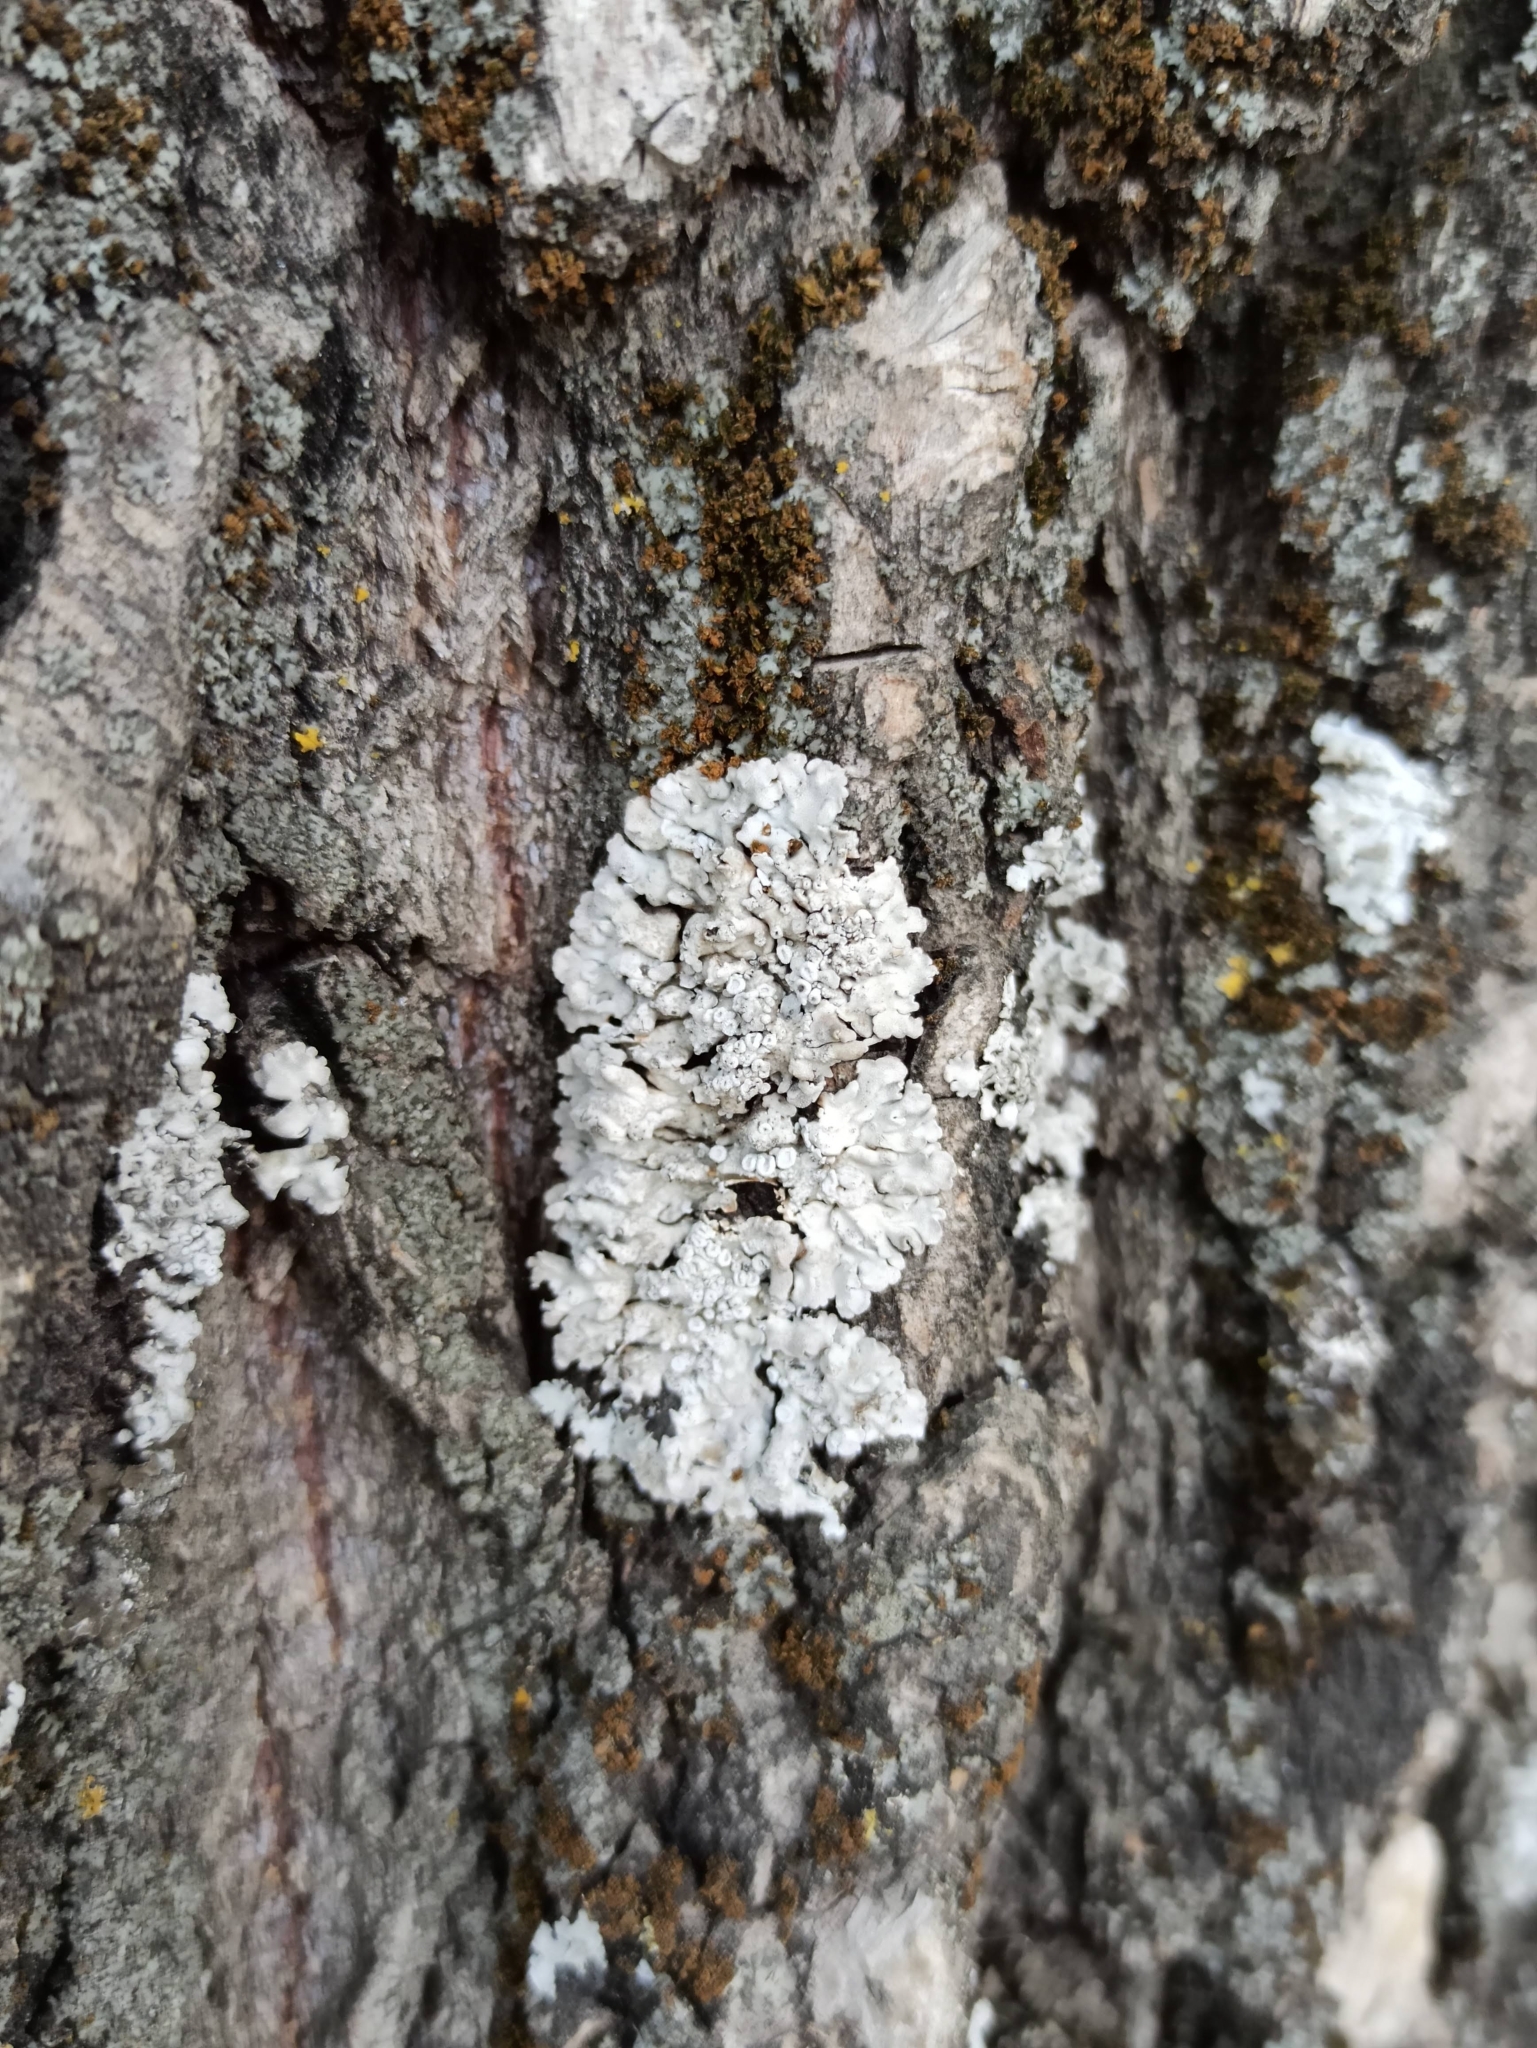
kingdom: Fungi
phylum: Ascomycota
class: Lecanoromycetes
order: Caliciales
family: Physciaceae
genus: Poeltonia
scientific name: Poeltonia grisea
